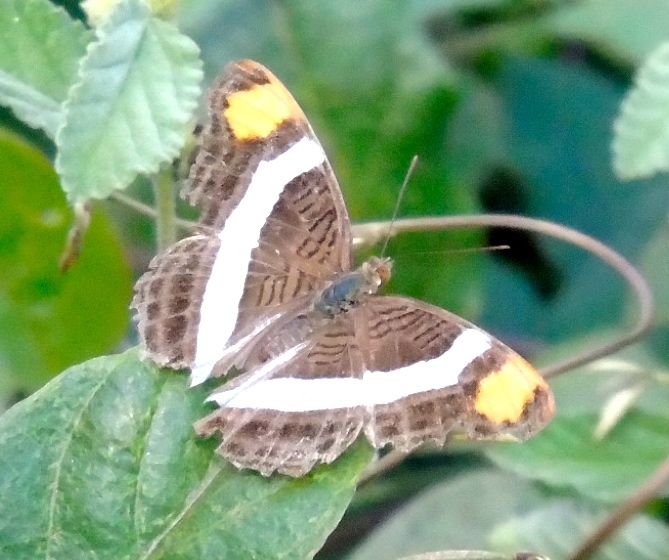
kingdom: Animalia
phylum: Arthropoda
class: Insecta
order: Lepidoptera
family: Nymphalidae
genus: Limenitis
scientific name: Limenitis fessonia
